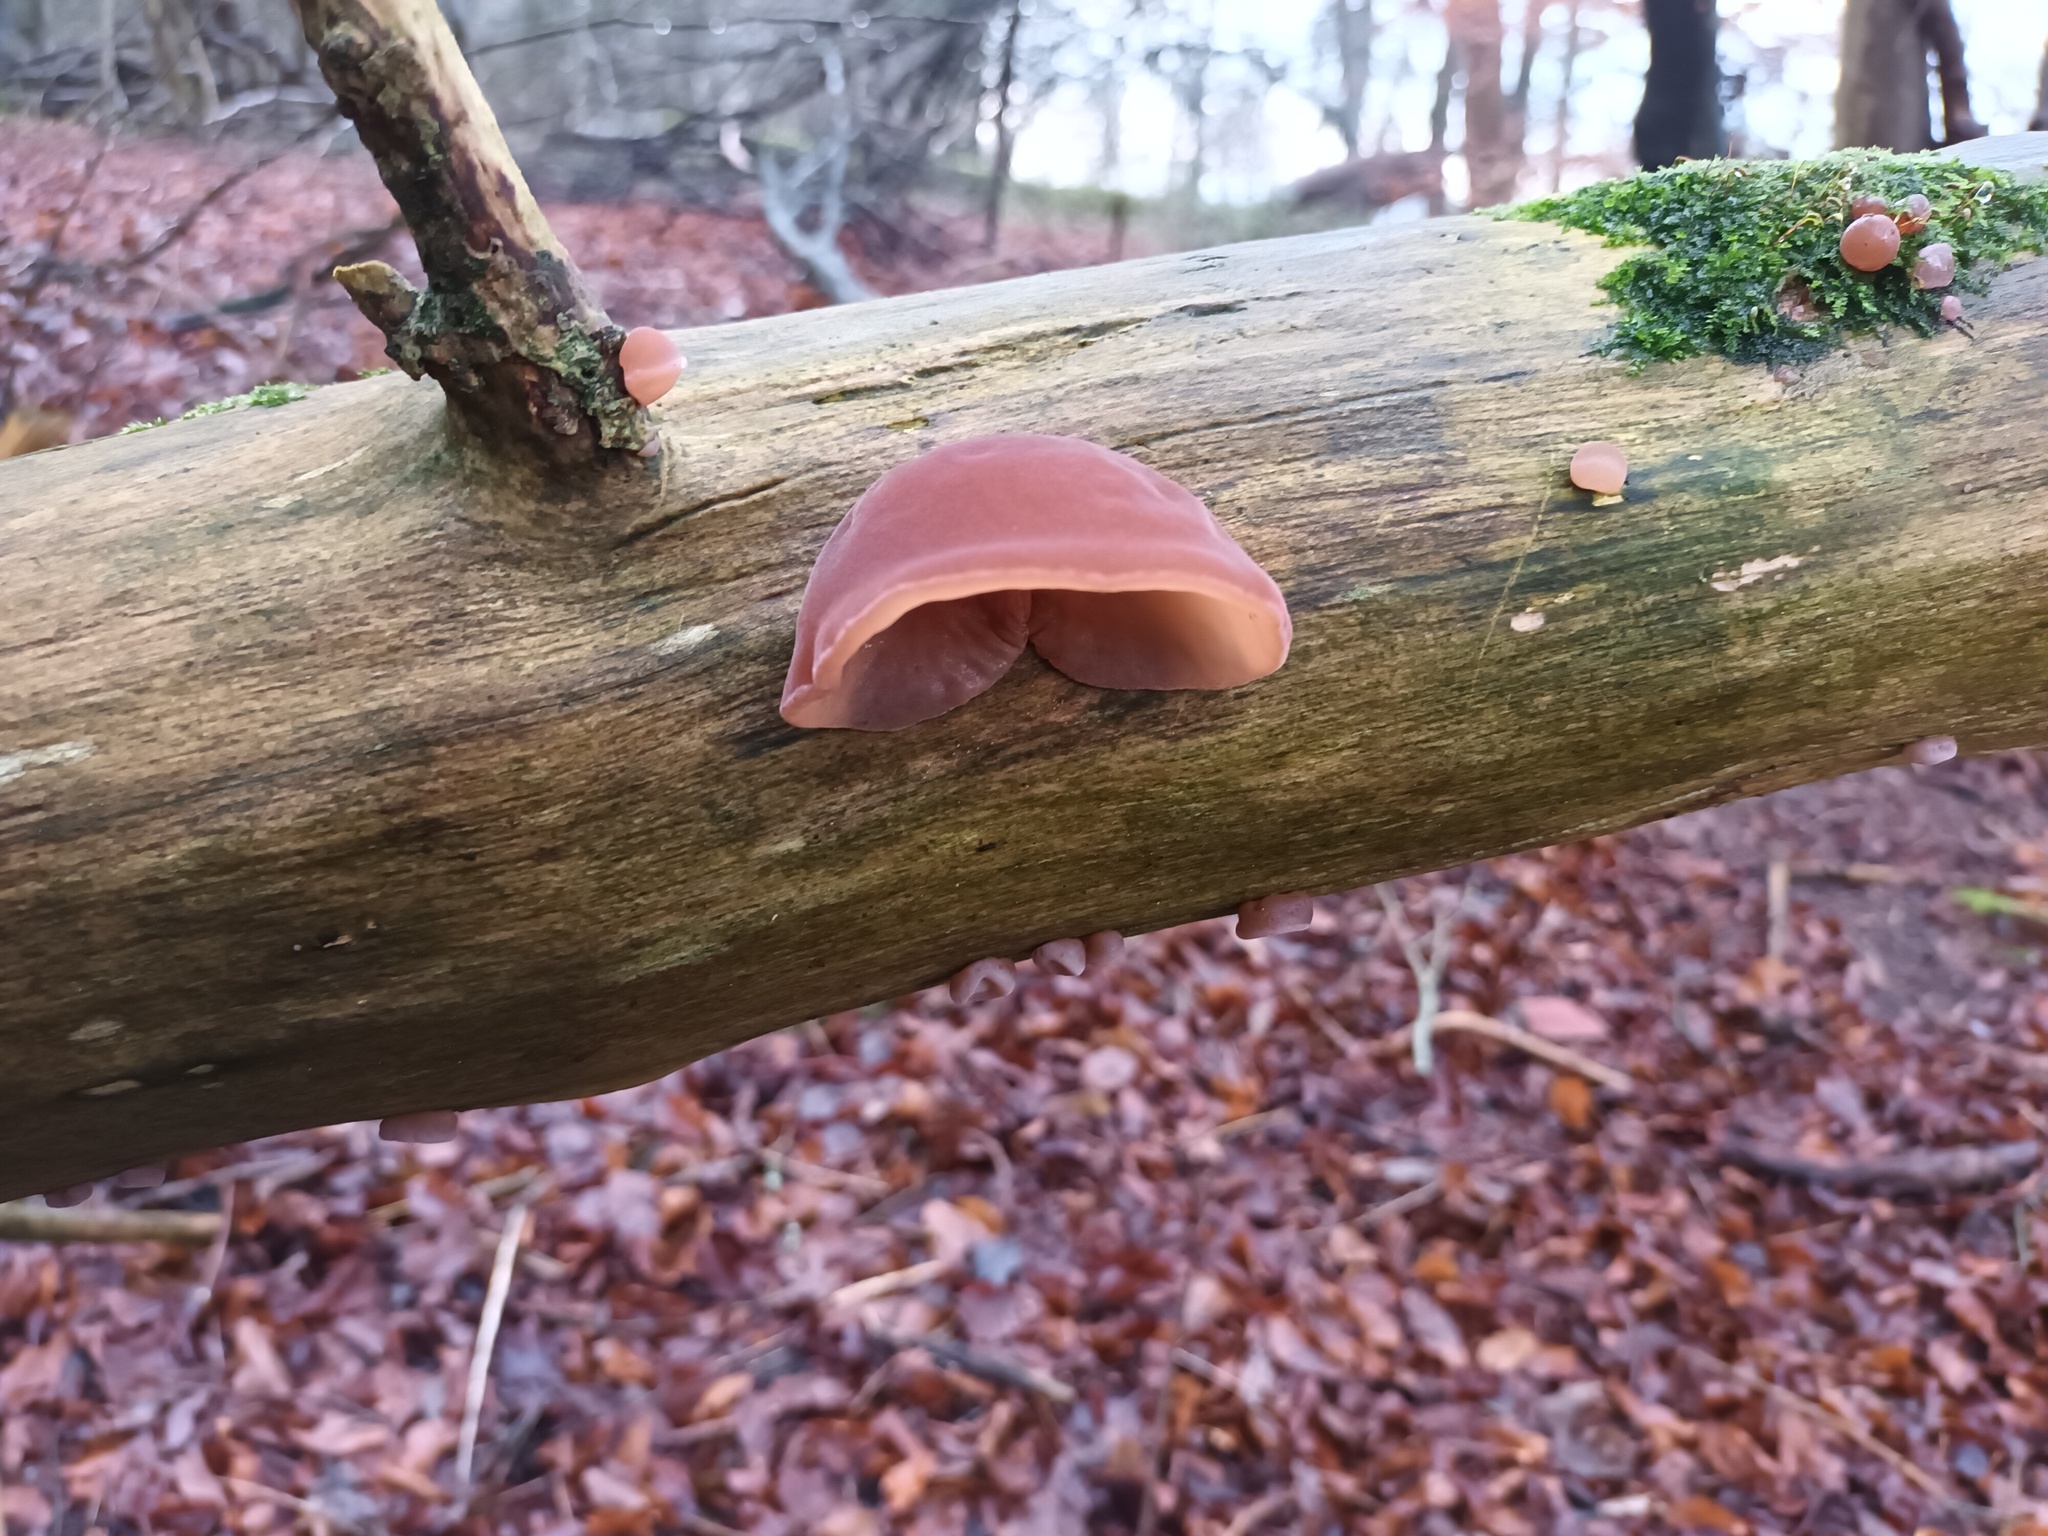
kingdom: Fungi
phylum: Basidiomycota
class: Agaricomycetes
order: Auriculariales
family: Auriculariaceae
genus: Auricularia
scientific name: Auricularia auricula-judae
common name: Jelly ear
